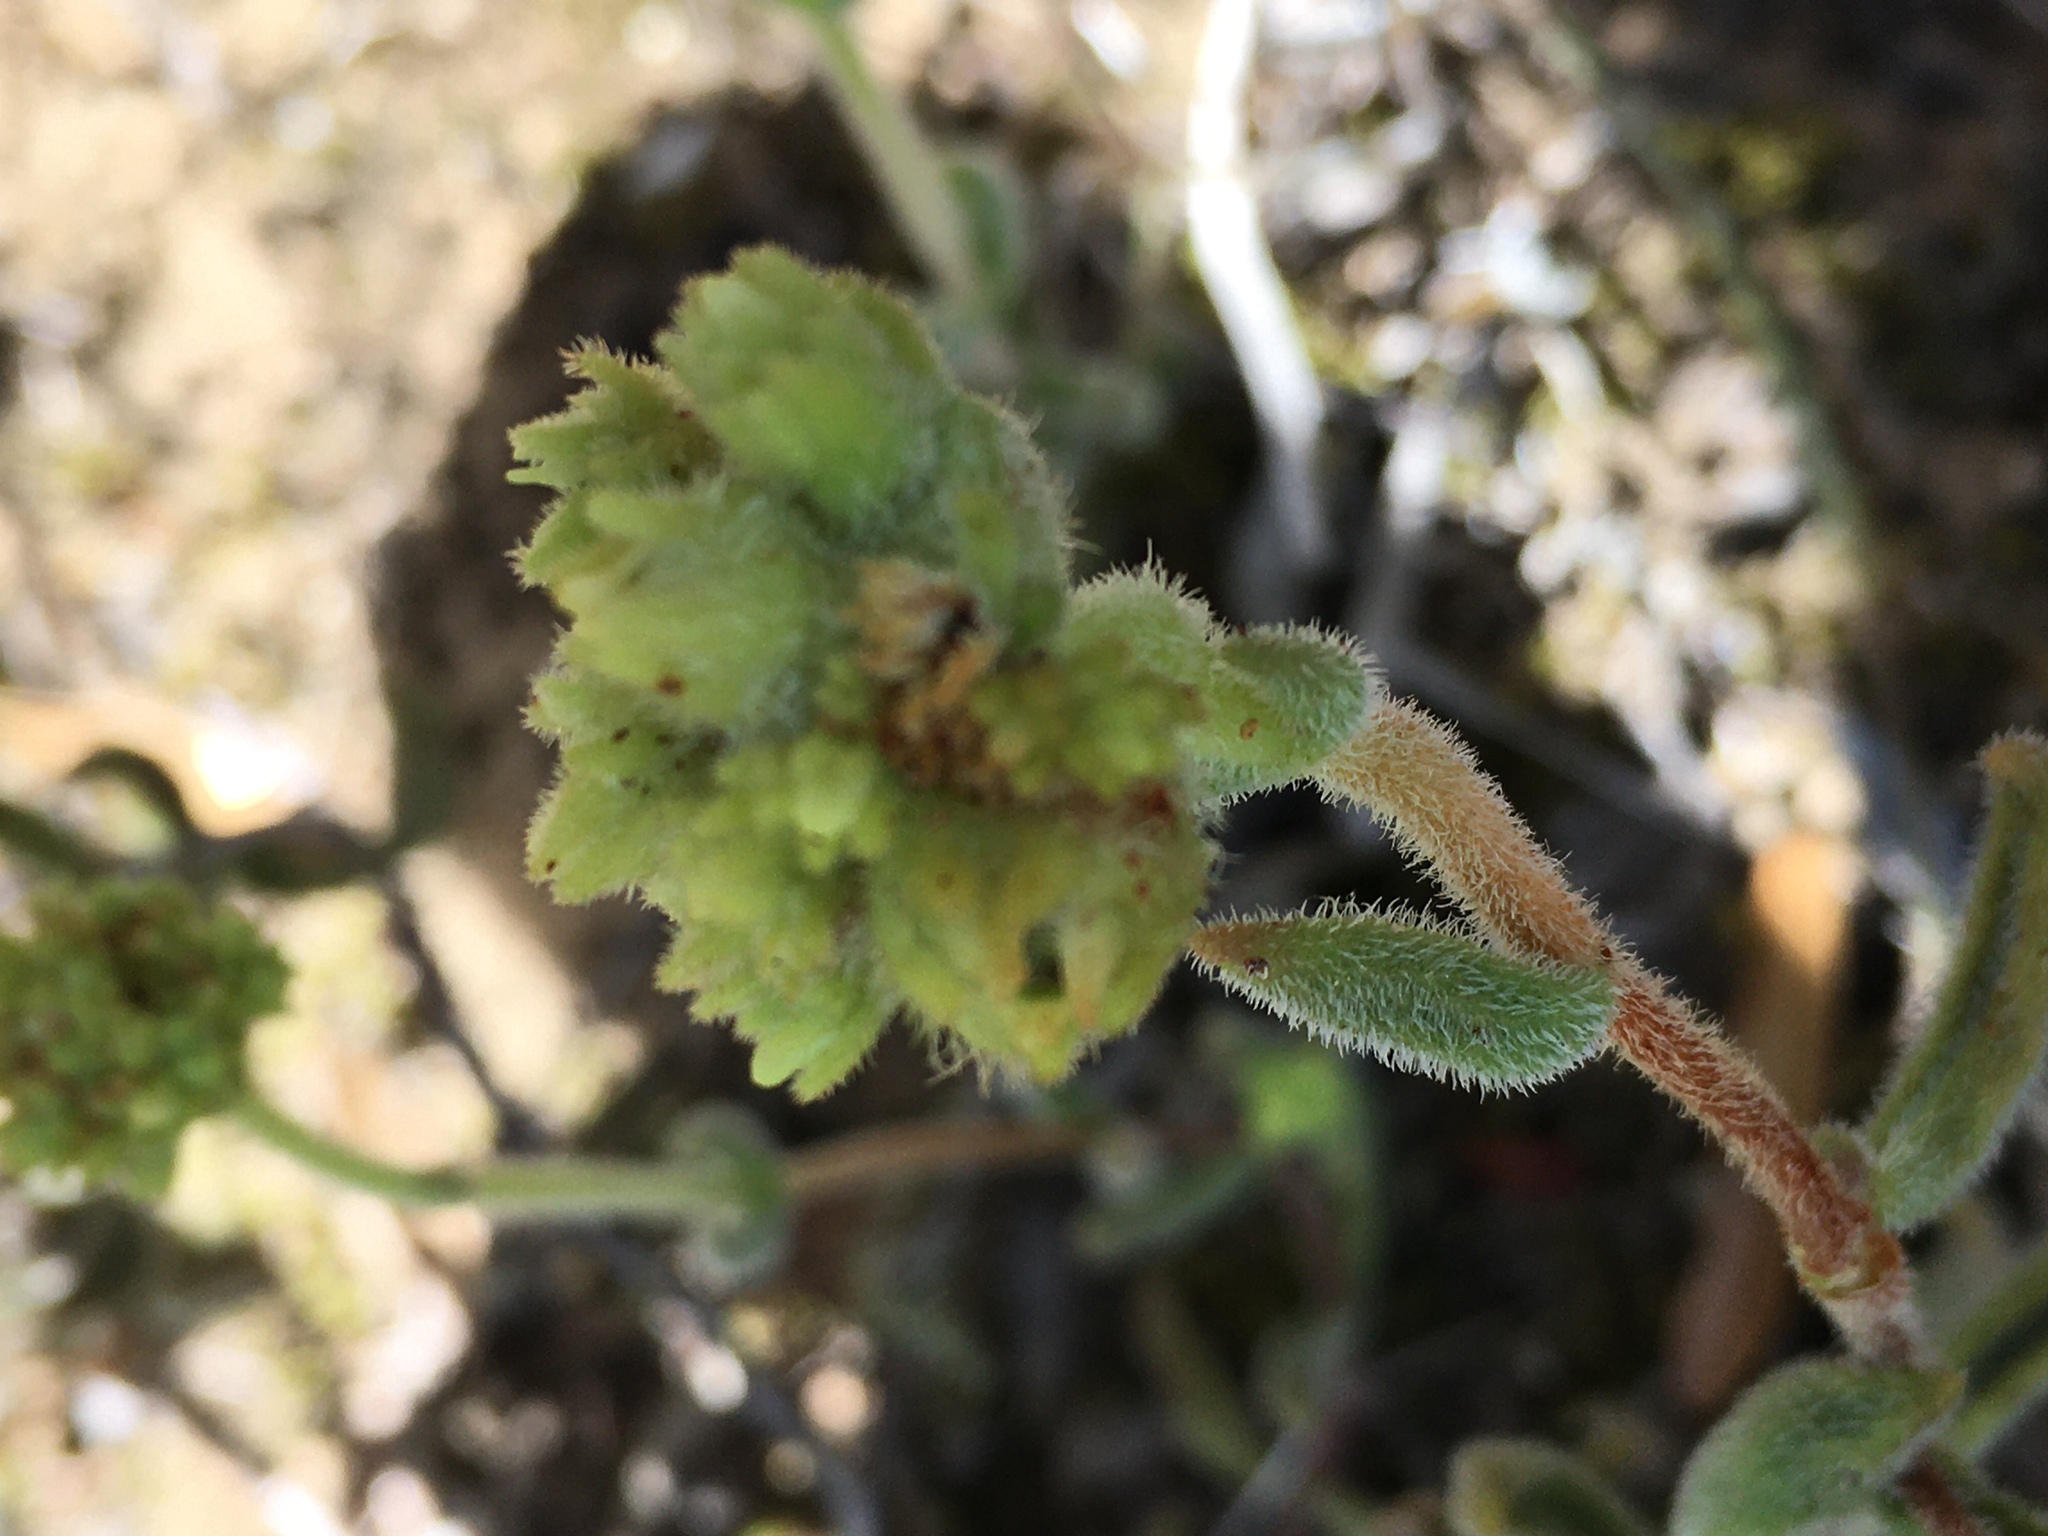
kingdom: Plantae
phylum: Tracheophyta
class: Magnoliopsida
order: Saxifragales
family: Crassulaceae
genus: Crassula
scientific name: Crassula mesembryanthoides
